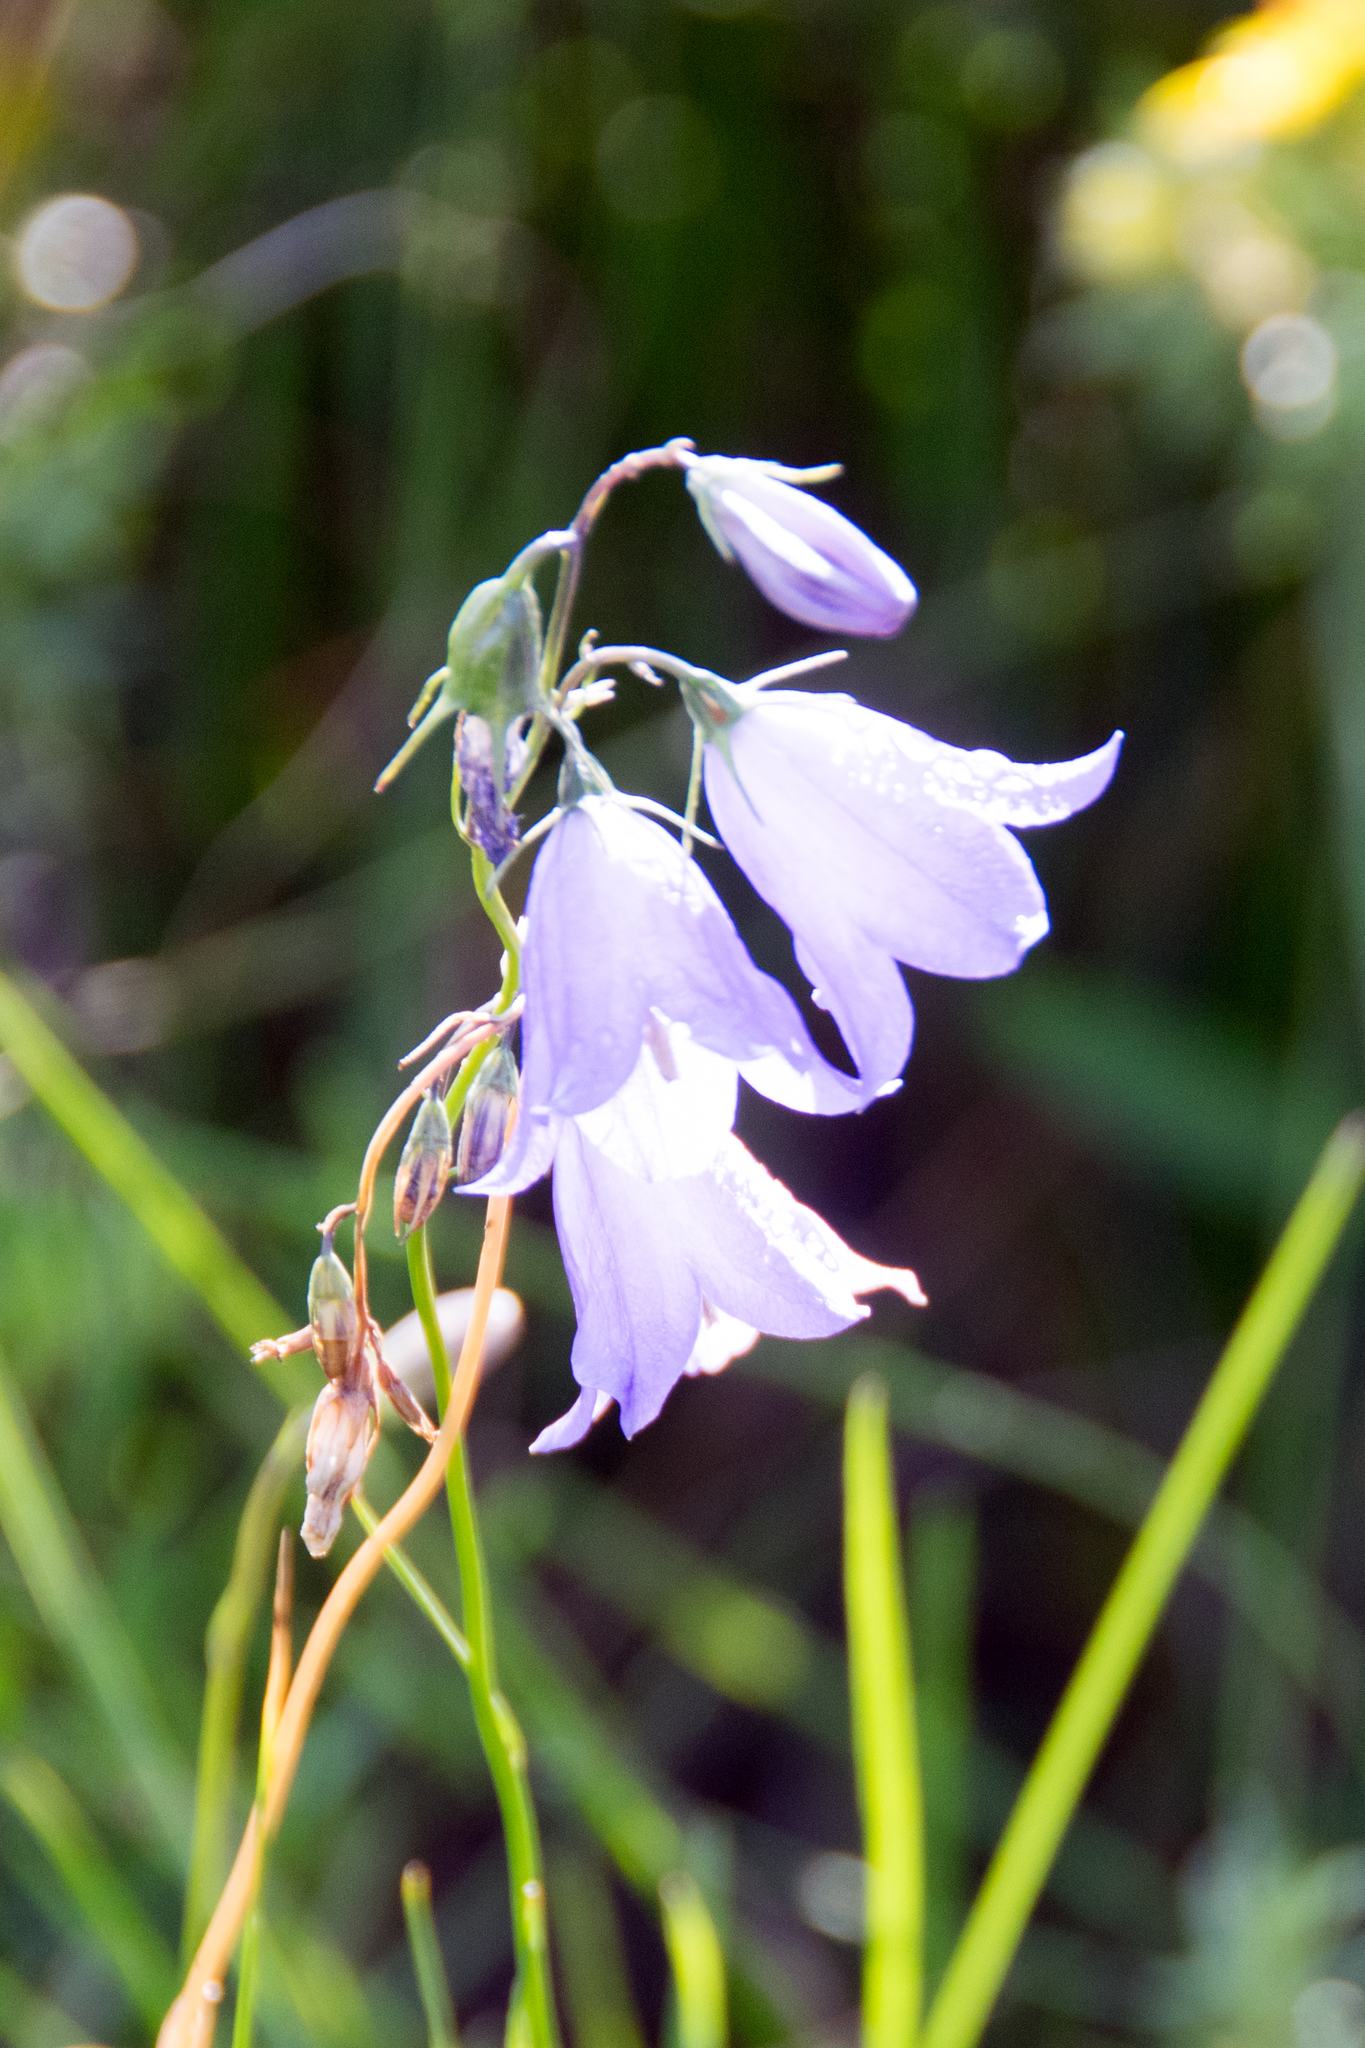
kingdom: Plantae
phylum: Tracheophyta
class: Magnoliopsida
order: Asterales
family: Campanulaceae
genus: Campanula
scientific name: Campanula petiolata
